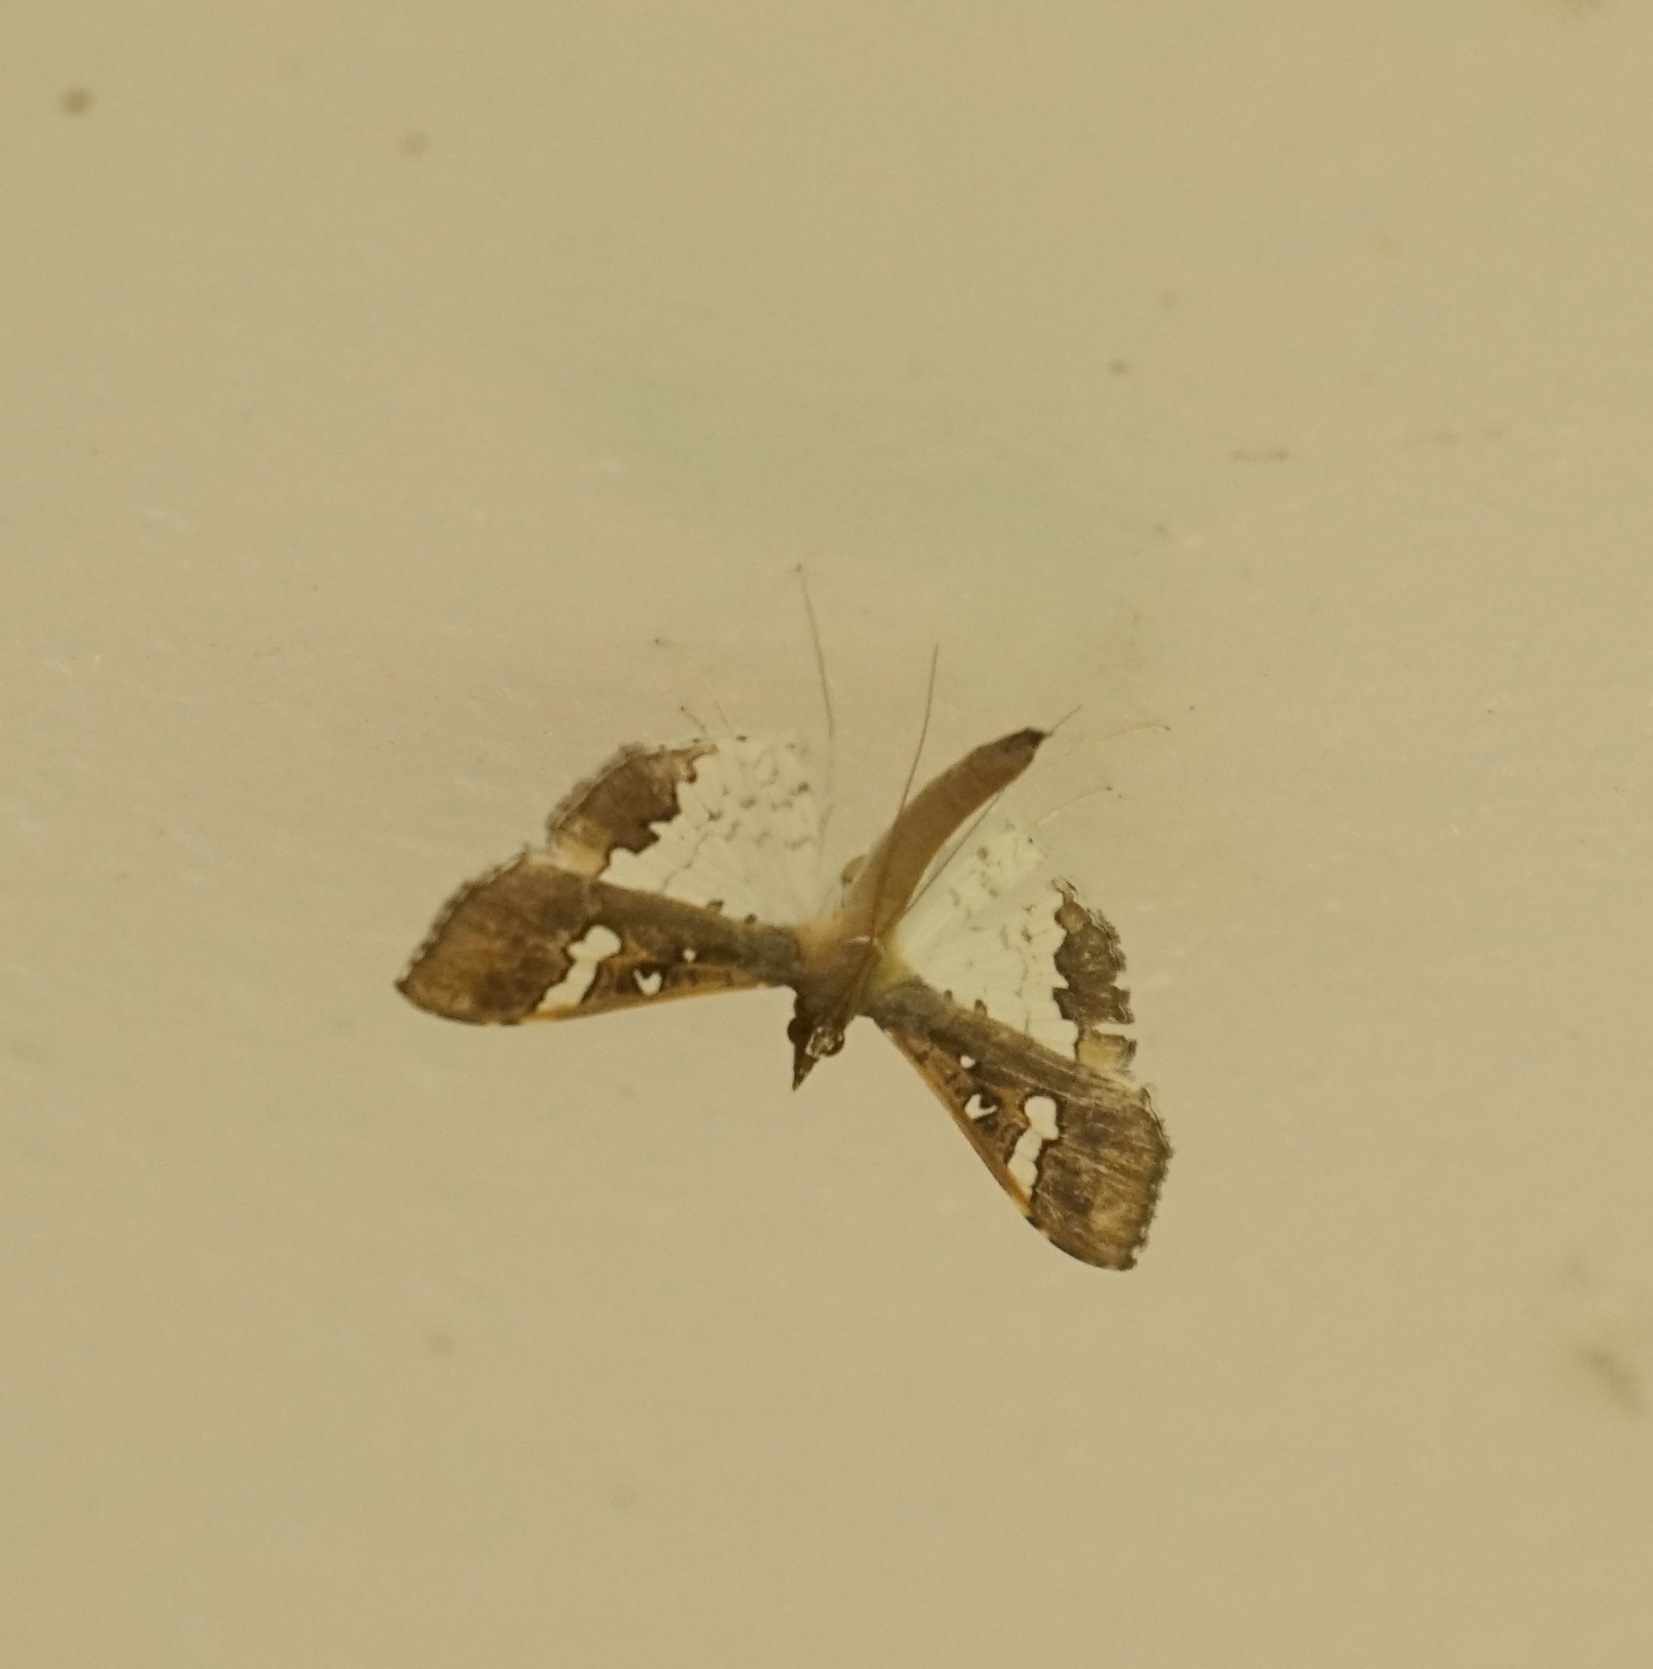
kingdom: Animalia
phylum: Arthropoda
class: Insecta
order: Lepidoptera
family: Crambidae
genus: Maruca
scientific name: Maruca vitrata
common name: Maruca pod borer
